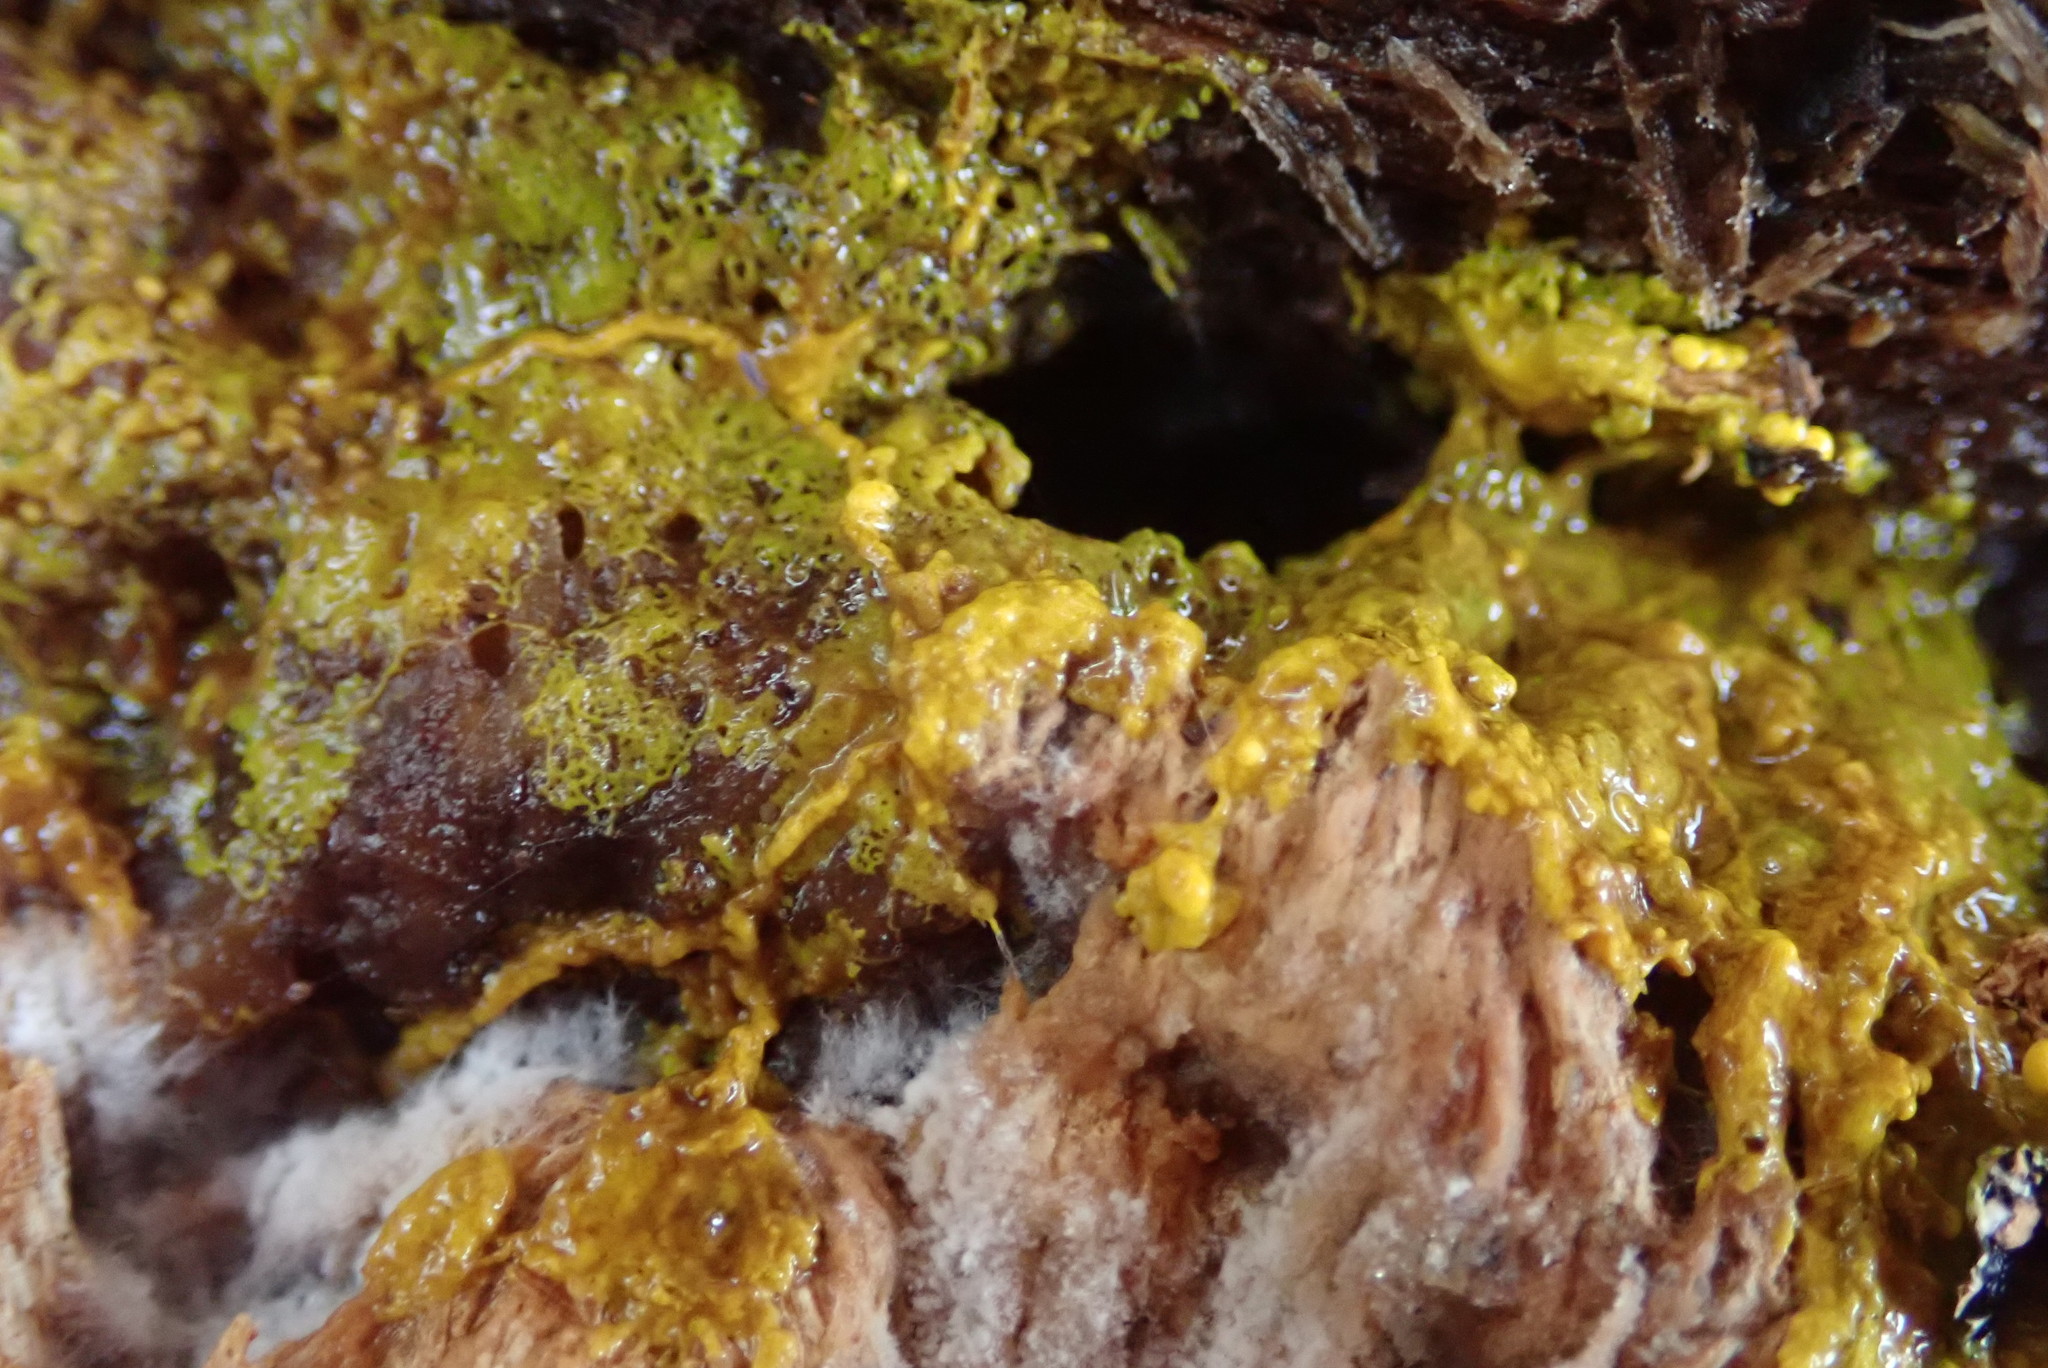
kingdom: Protozoa
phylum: Mycetozoa
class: Myxomycetes
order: Physarales
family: Physaraceae
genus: Fuligo
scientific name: Fuligo septica
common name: Dog vomit slime mold
